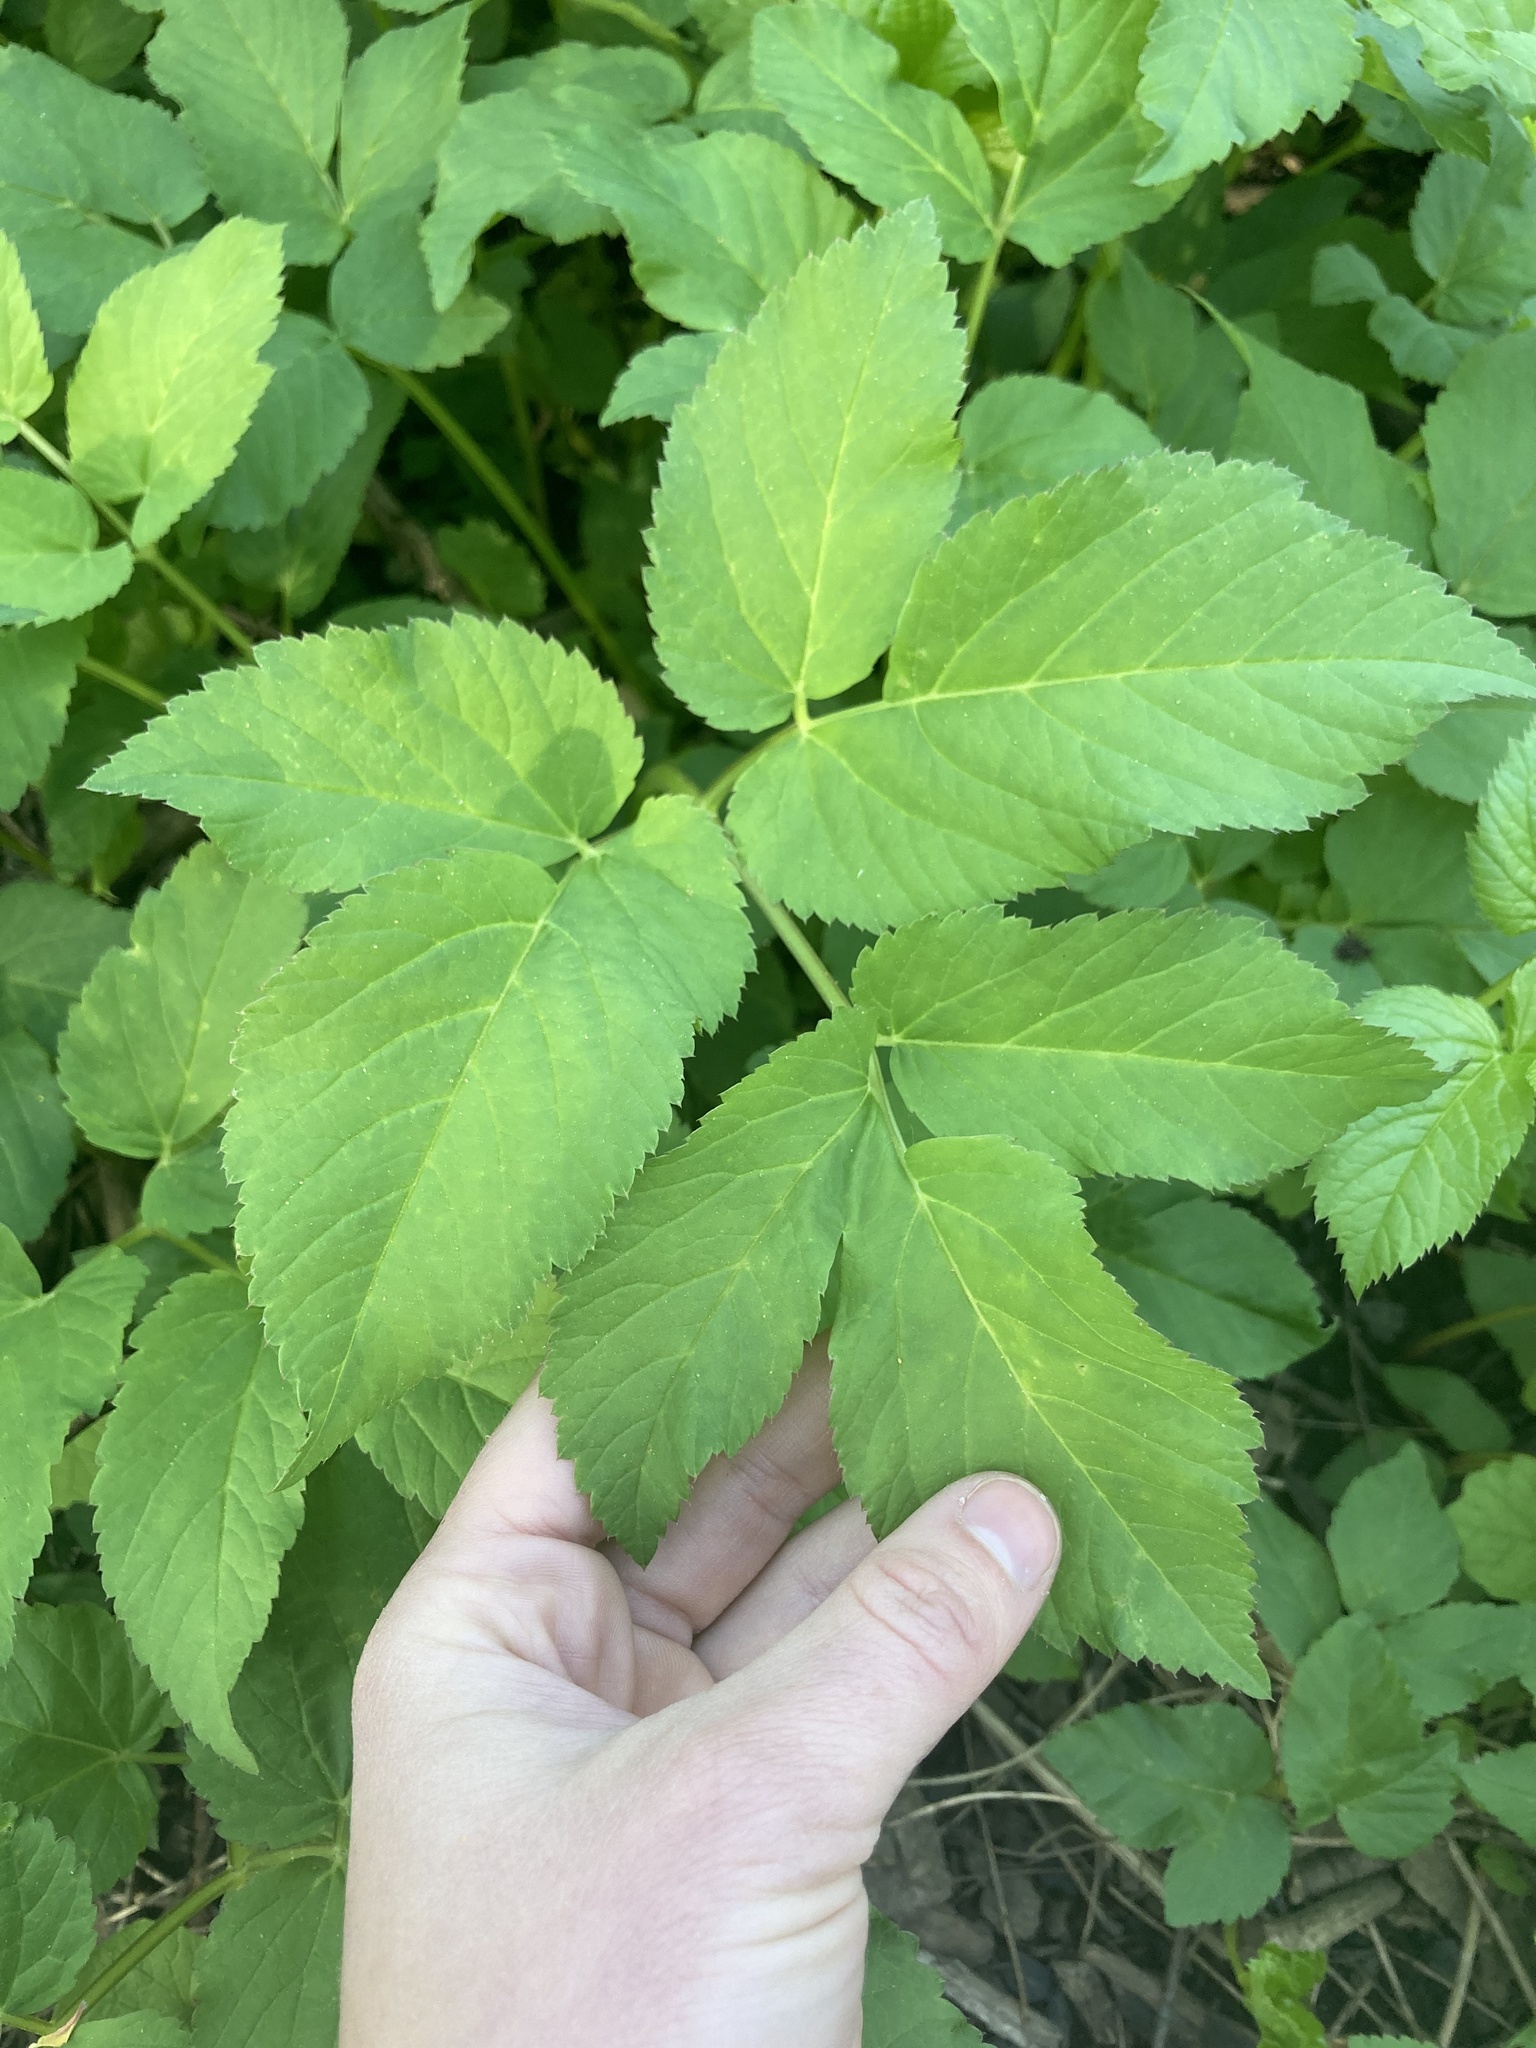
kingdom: Plantae
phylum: Tracheophyta
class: Magnoliopsida
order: Apiales
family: Apiaceae
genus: Aegopodium
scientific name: Aegopodium podagraria
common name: Ground-elder
